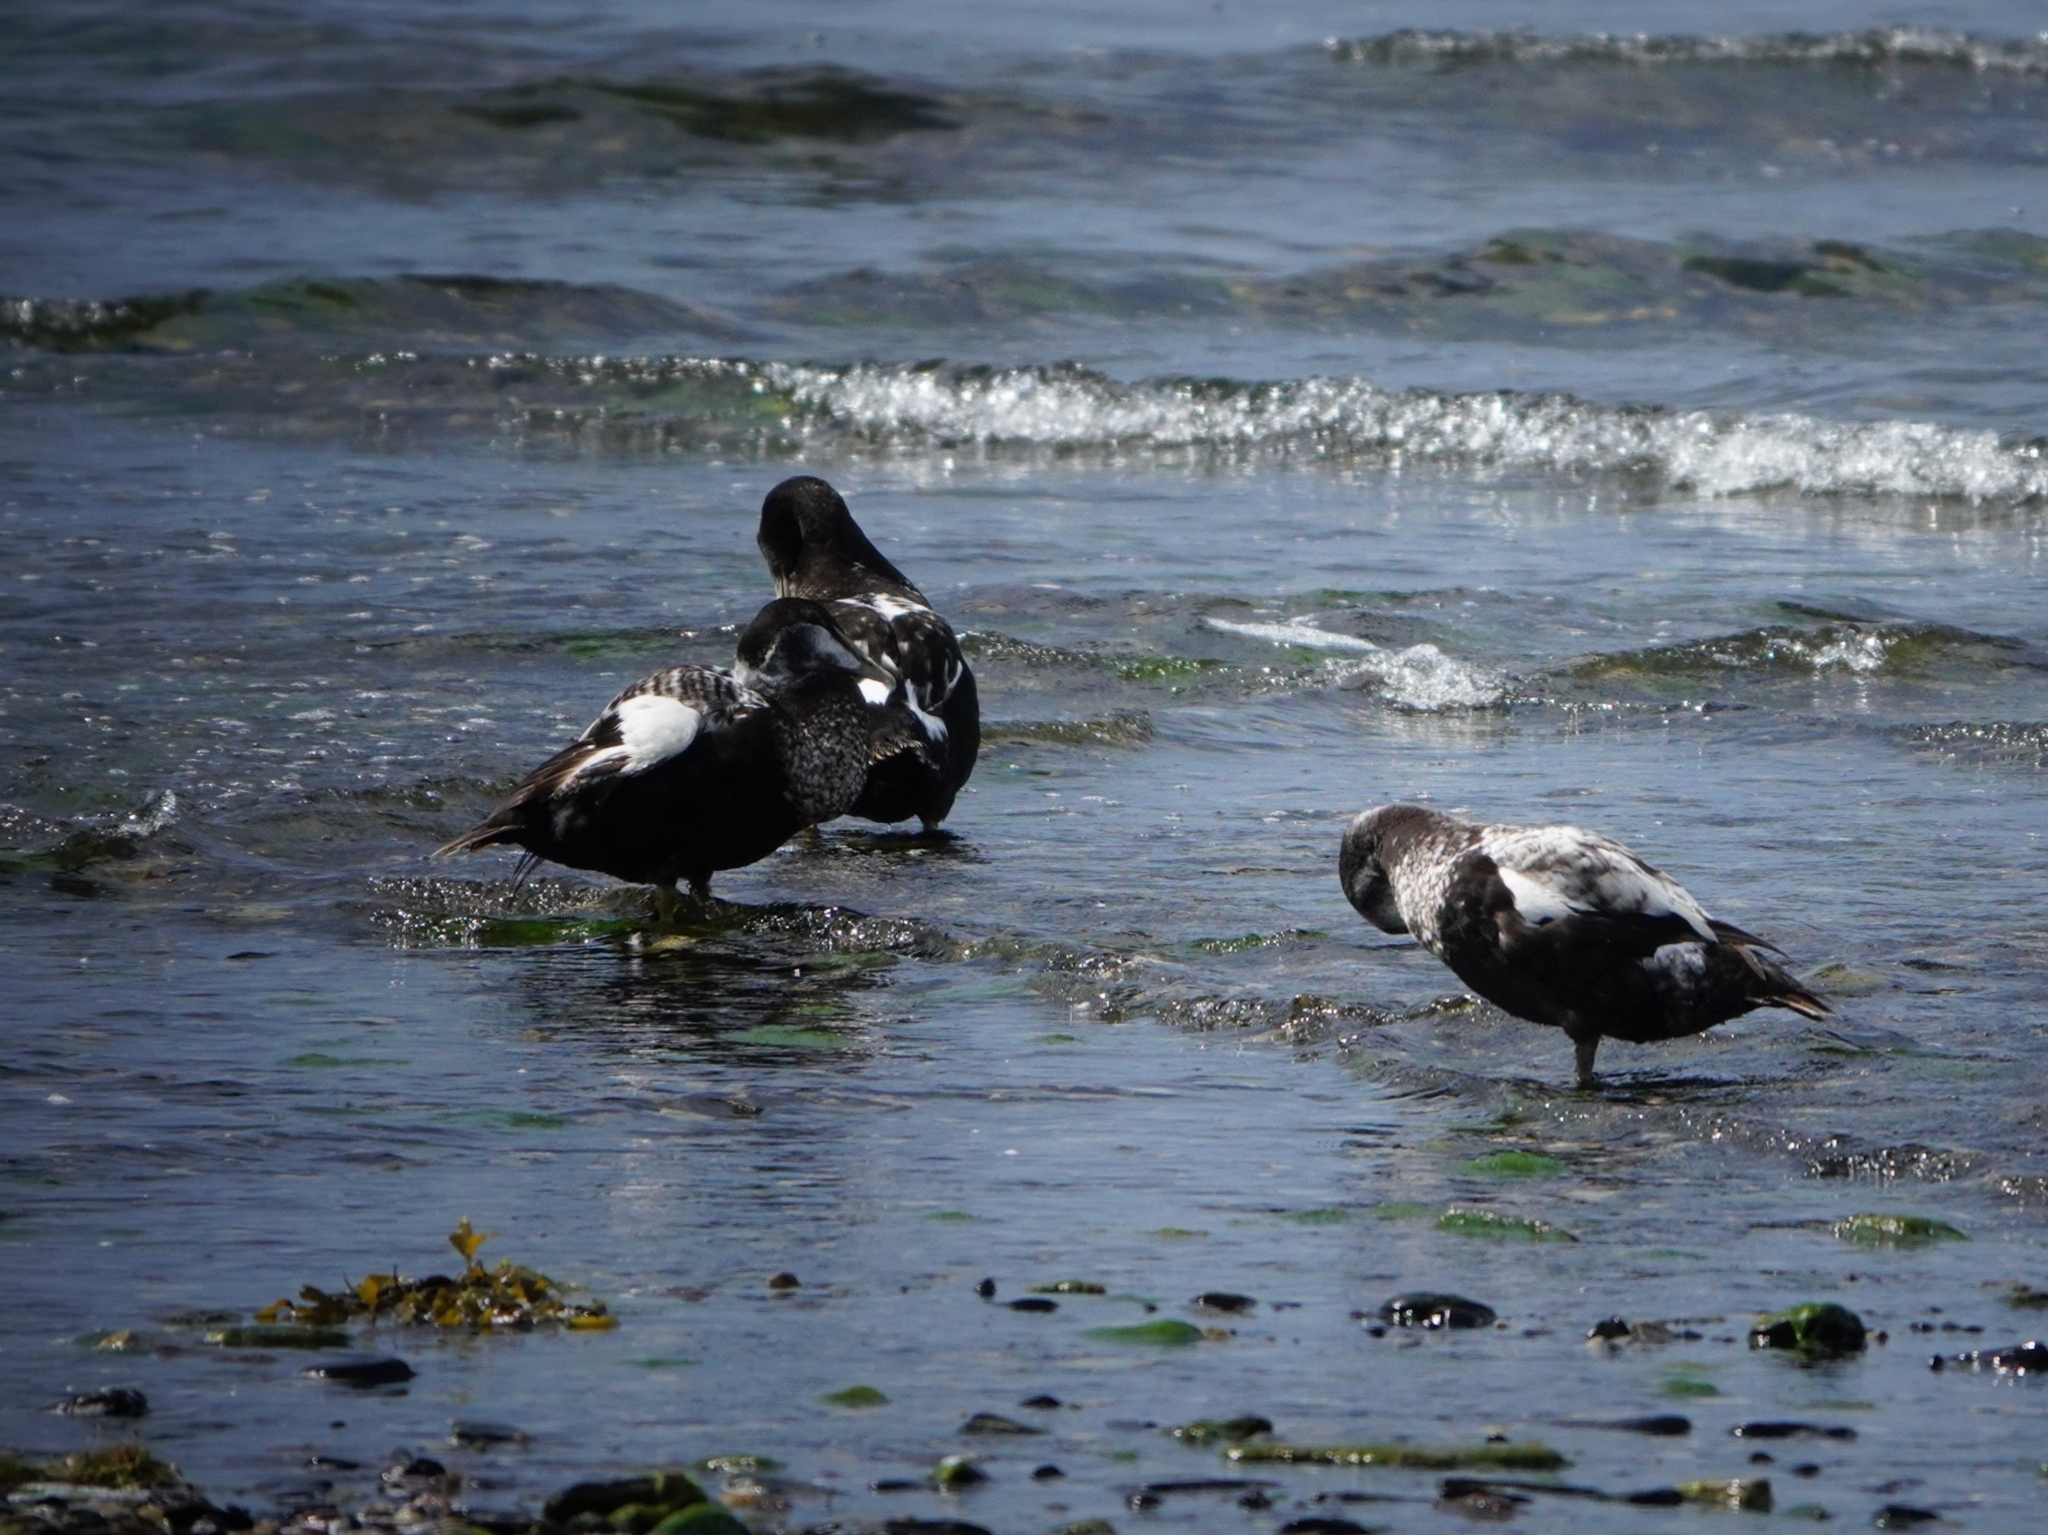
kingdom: Animalia
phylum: Chordata
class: Aves
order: Anseriformes
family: Anatidae
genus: Somateria
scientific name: Somateria mollissima
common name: Common eider
